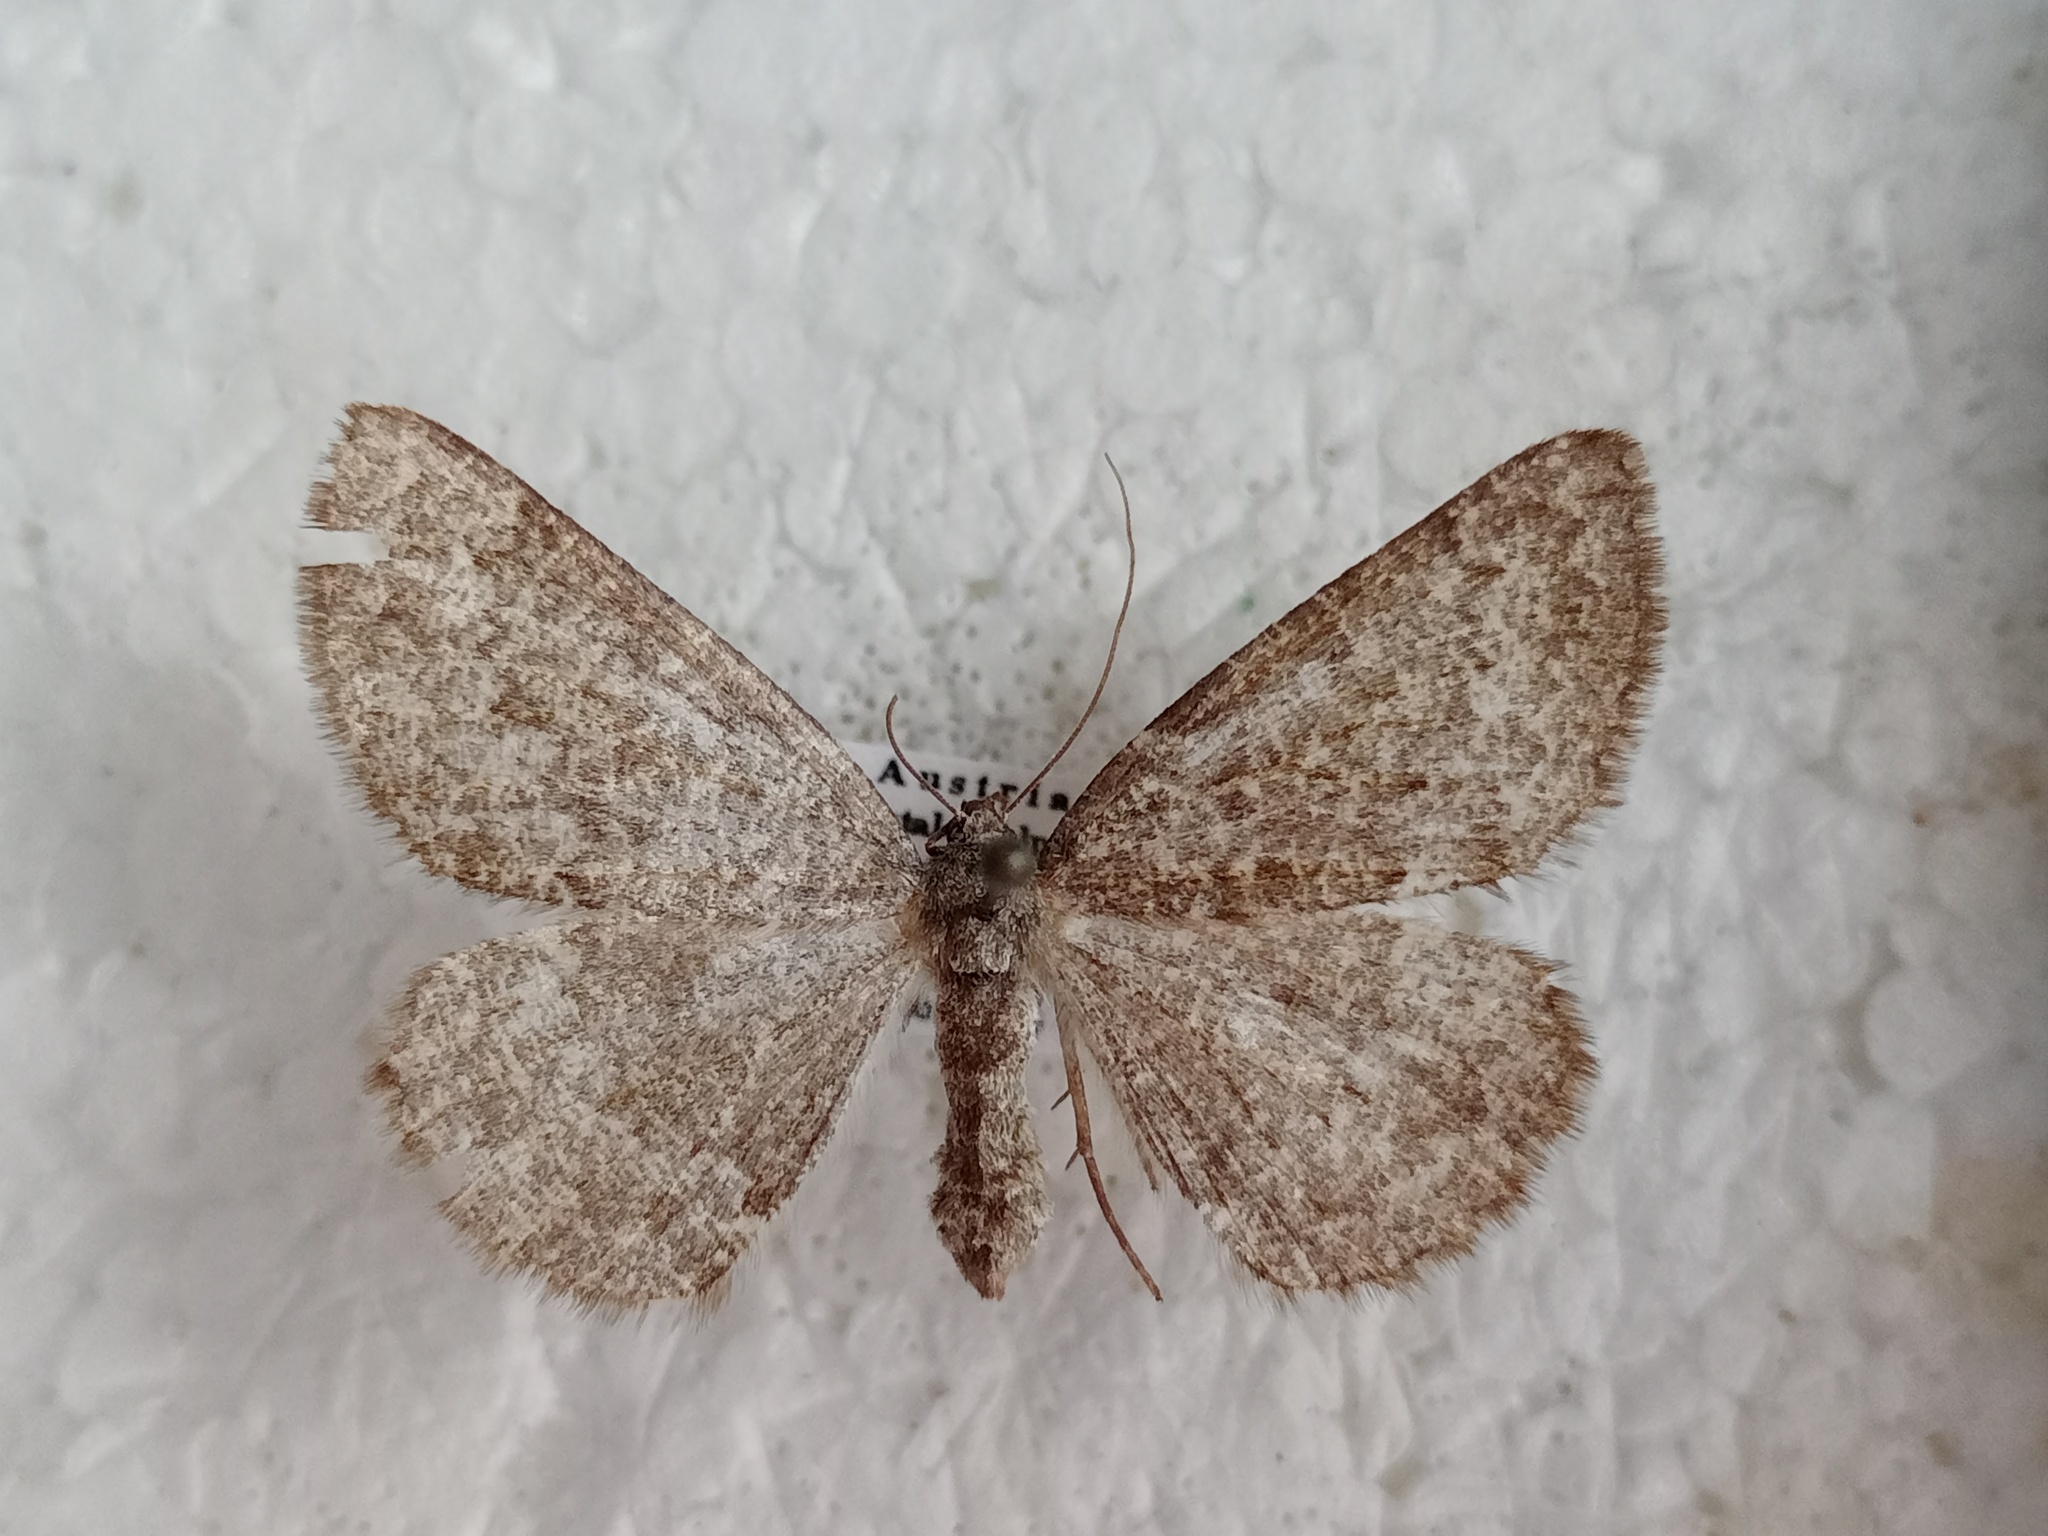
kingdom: Animalia
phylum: Arthropoda
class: Insecta
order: Lepidoptera
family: Geometridae
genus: Gnophos
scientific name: Gnophos obfuscata
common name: Scottish annulet
